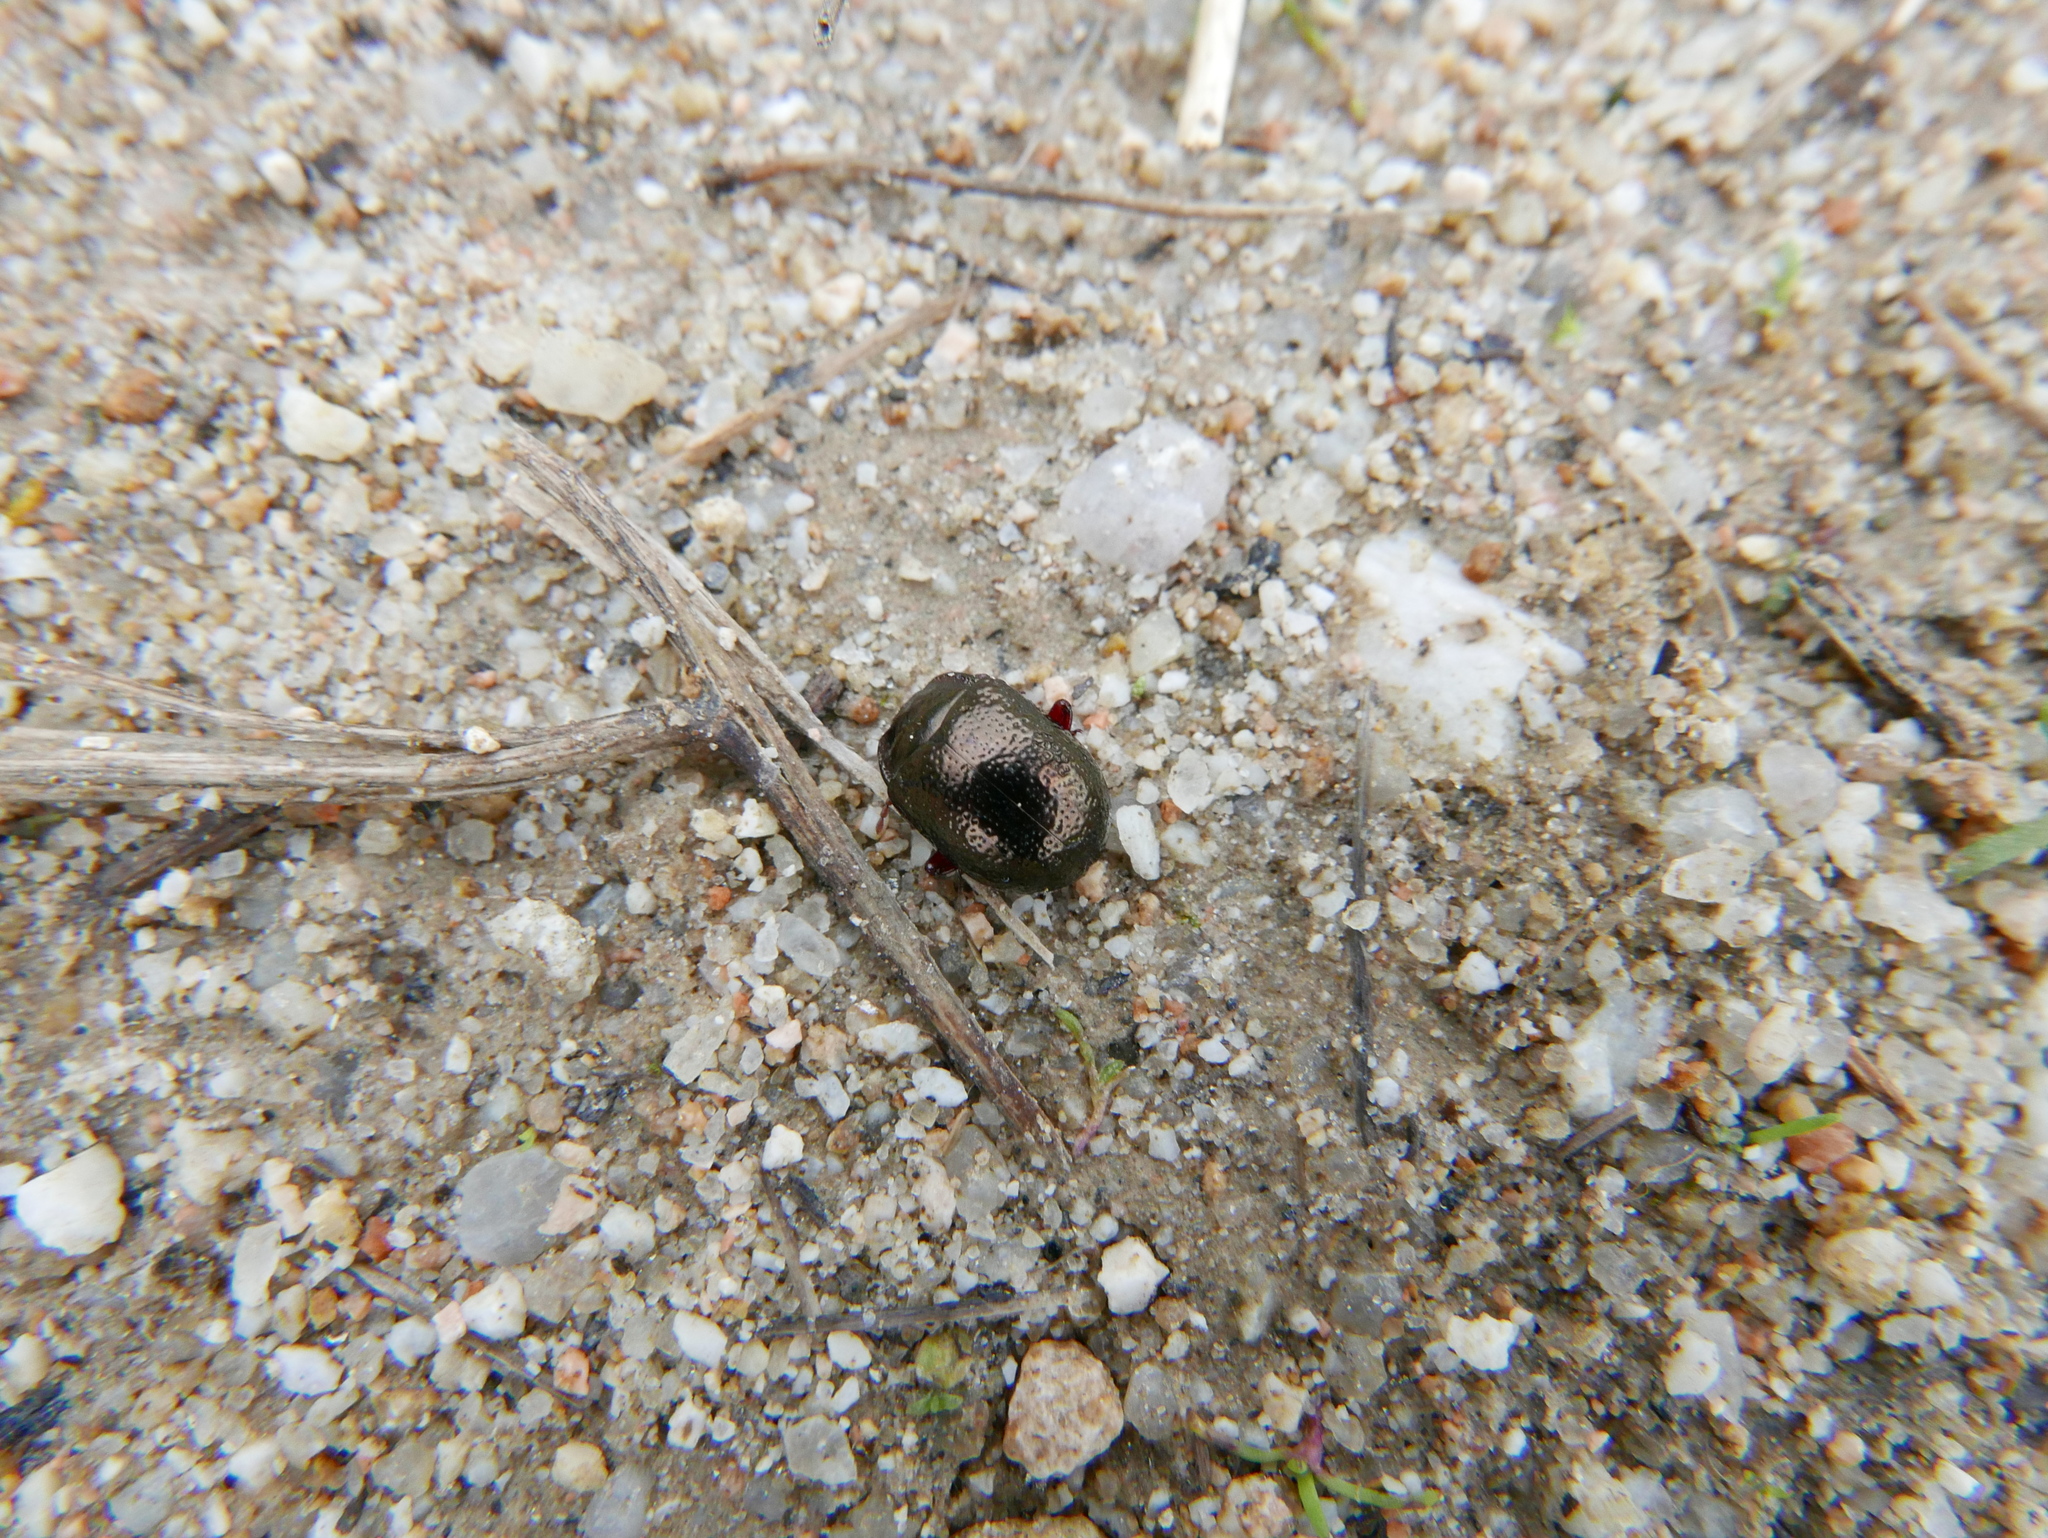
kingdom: Animalia
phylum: Arthropoda
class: Insecta
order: Coleoptera
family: Chrysomelidae
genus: Chrysolina
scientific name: Chrysolina bankii
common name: Leaf beetle
